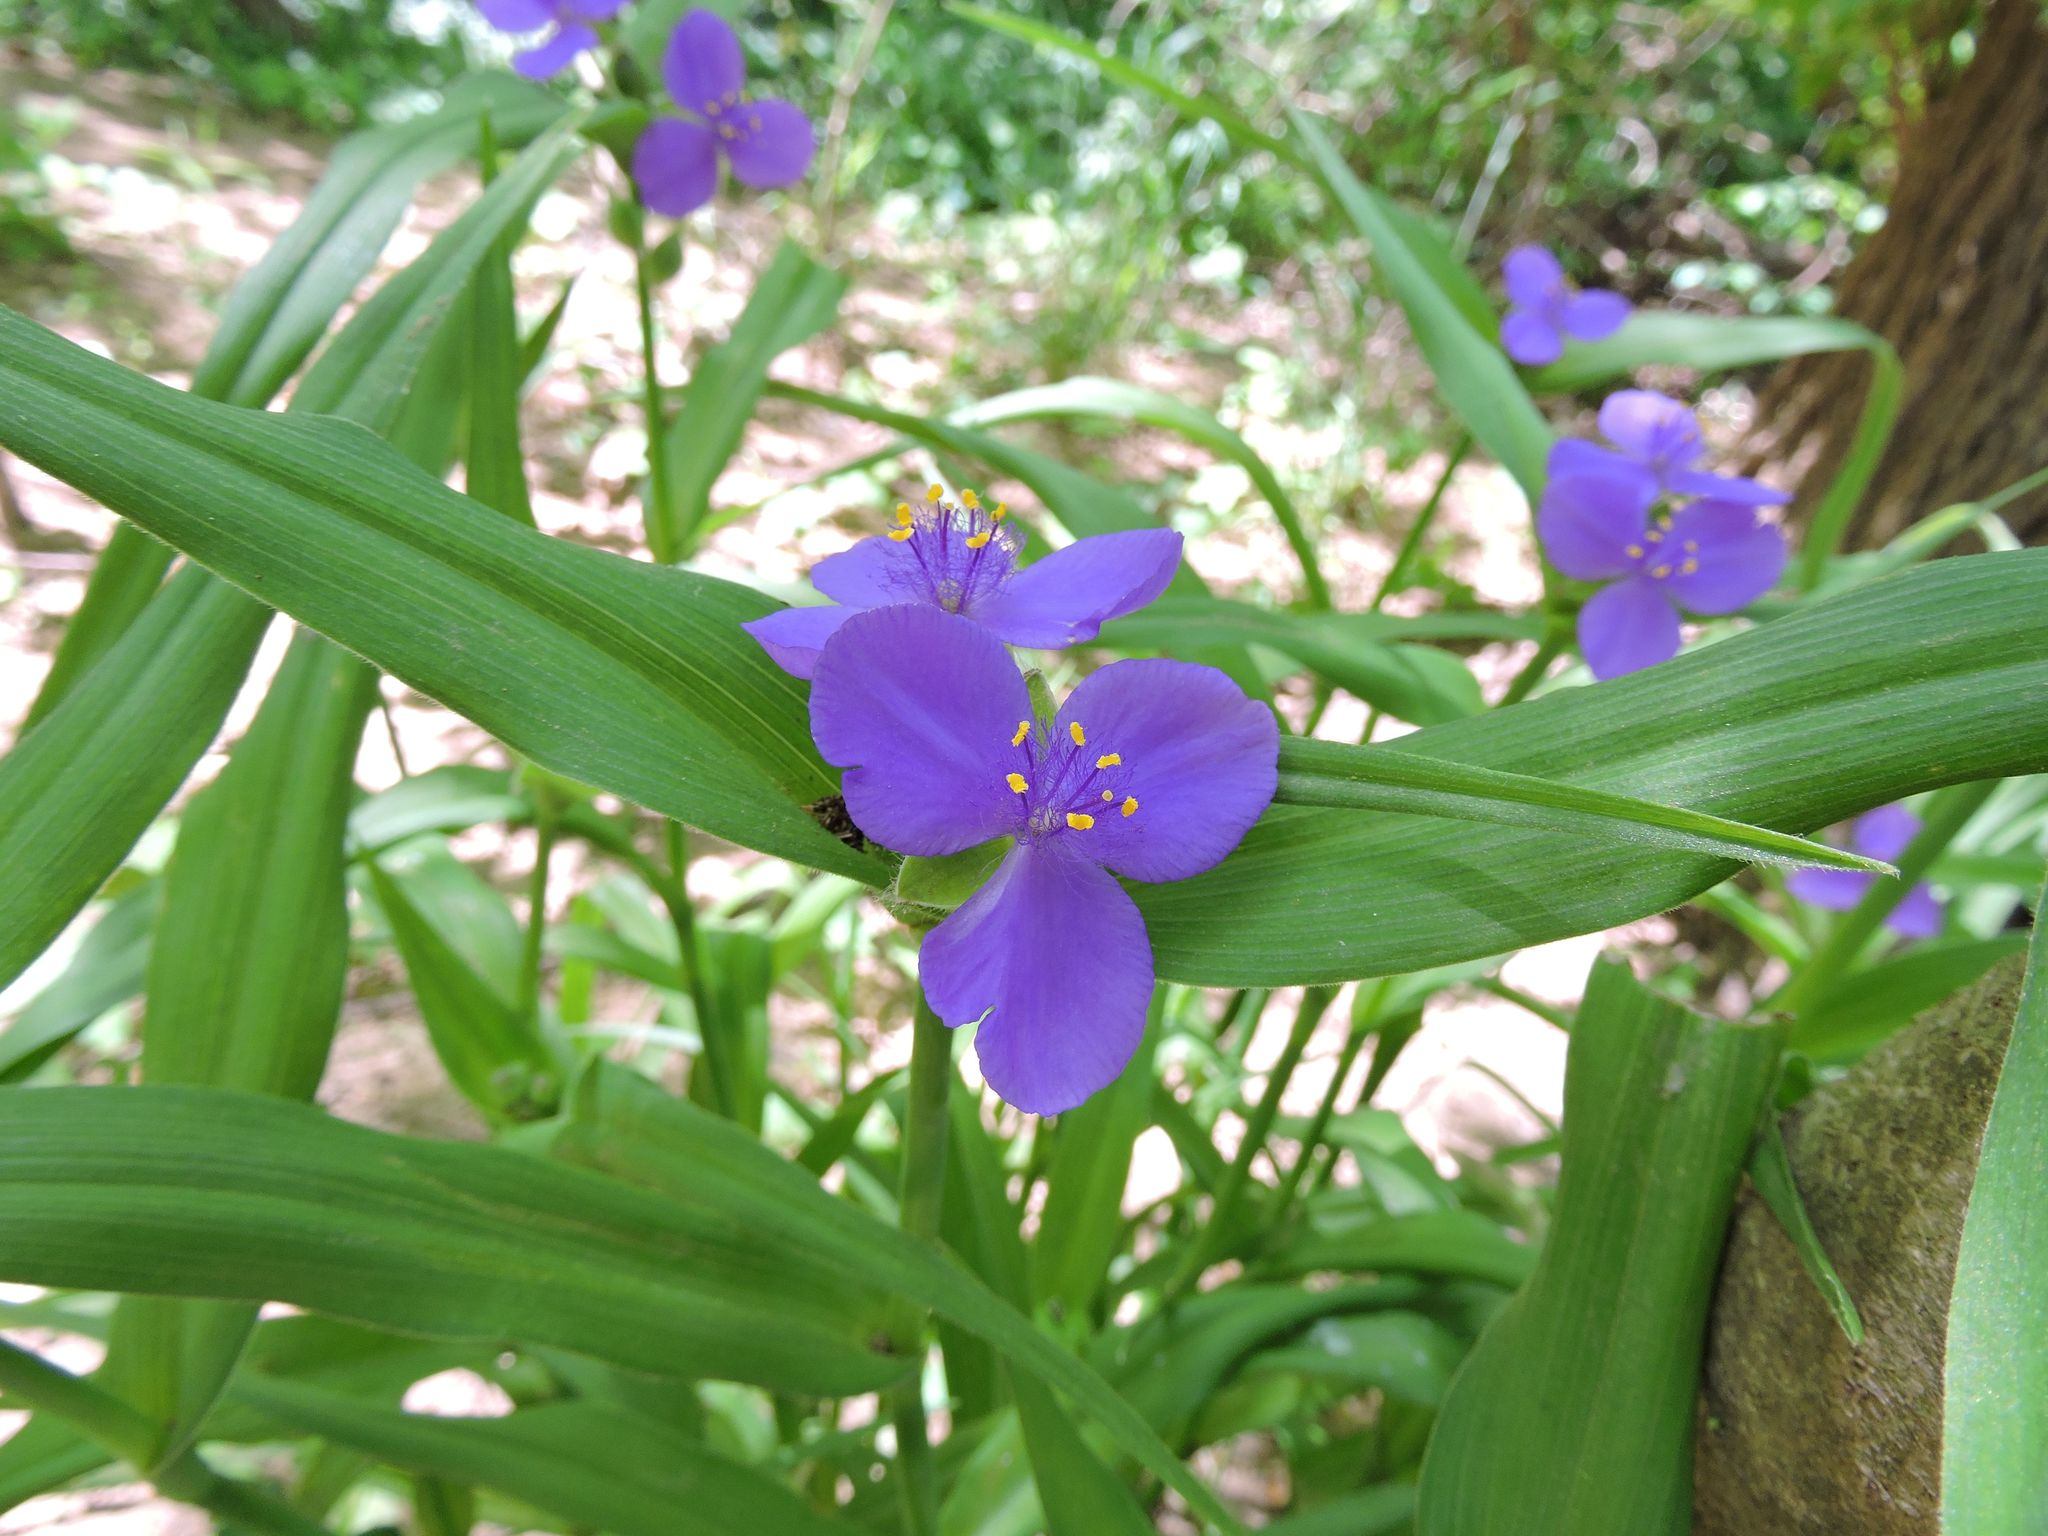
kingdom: Plantae
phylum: Tracheophyta
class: Liliopsida
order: Commelinales
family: Commelinaceae
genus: Tradescantia
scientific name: Tradescantia virginiana
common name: Spiderwort
